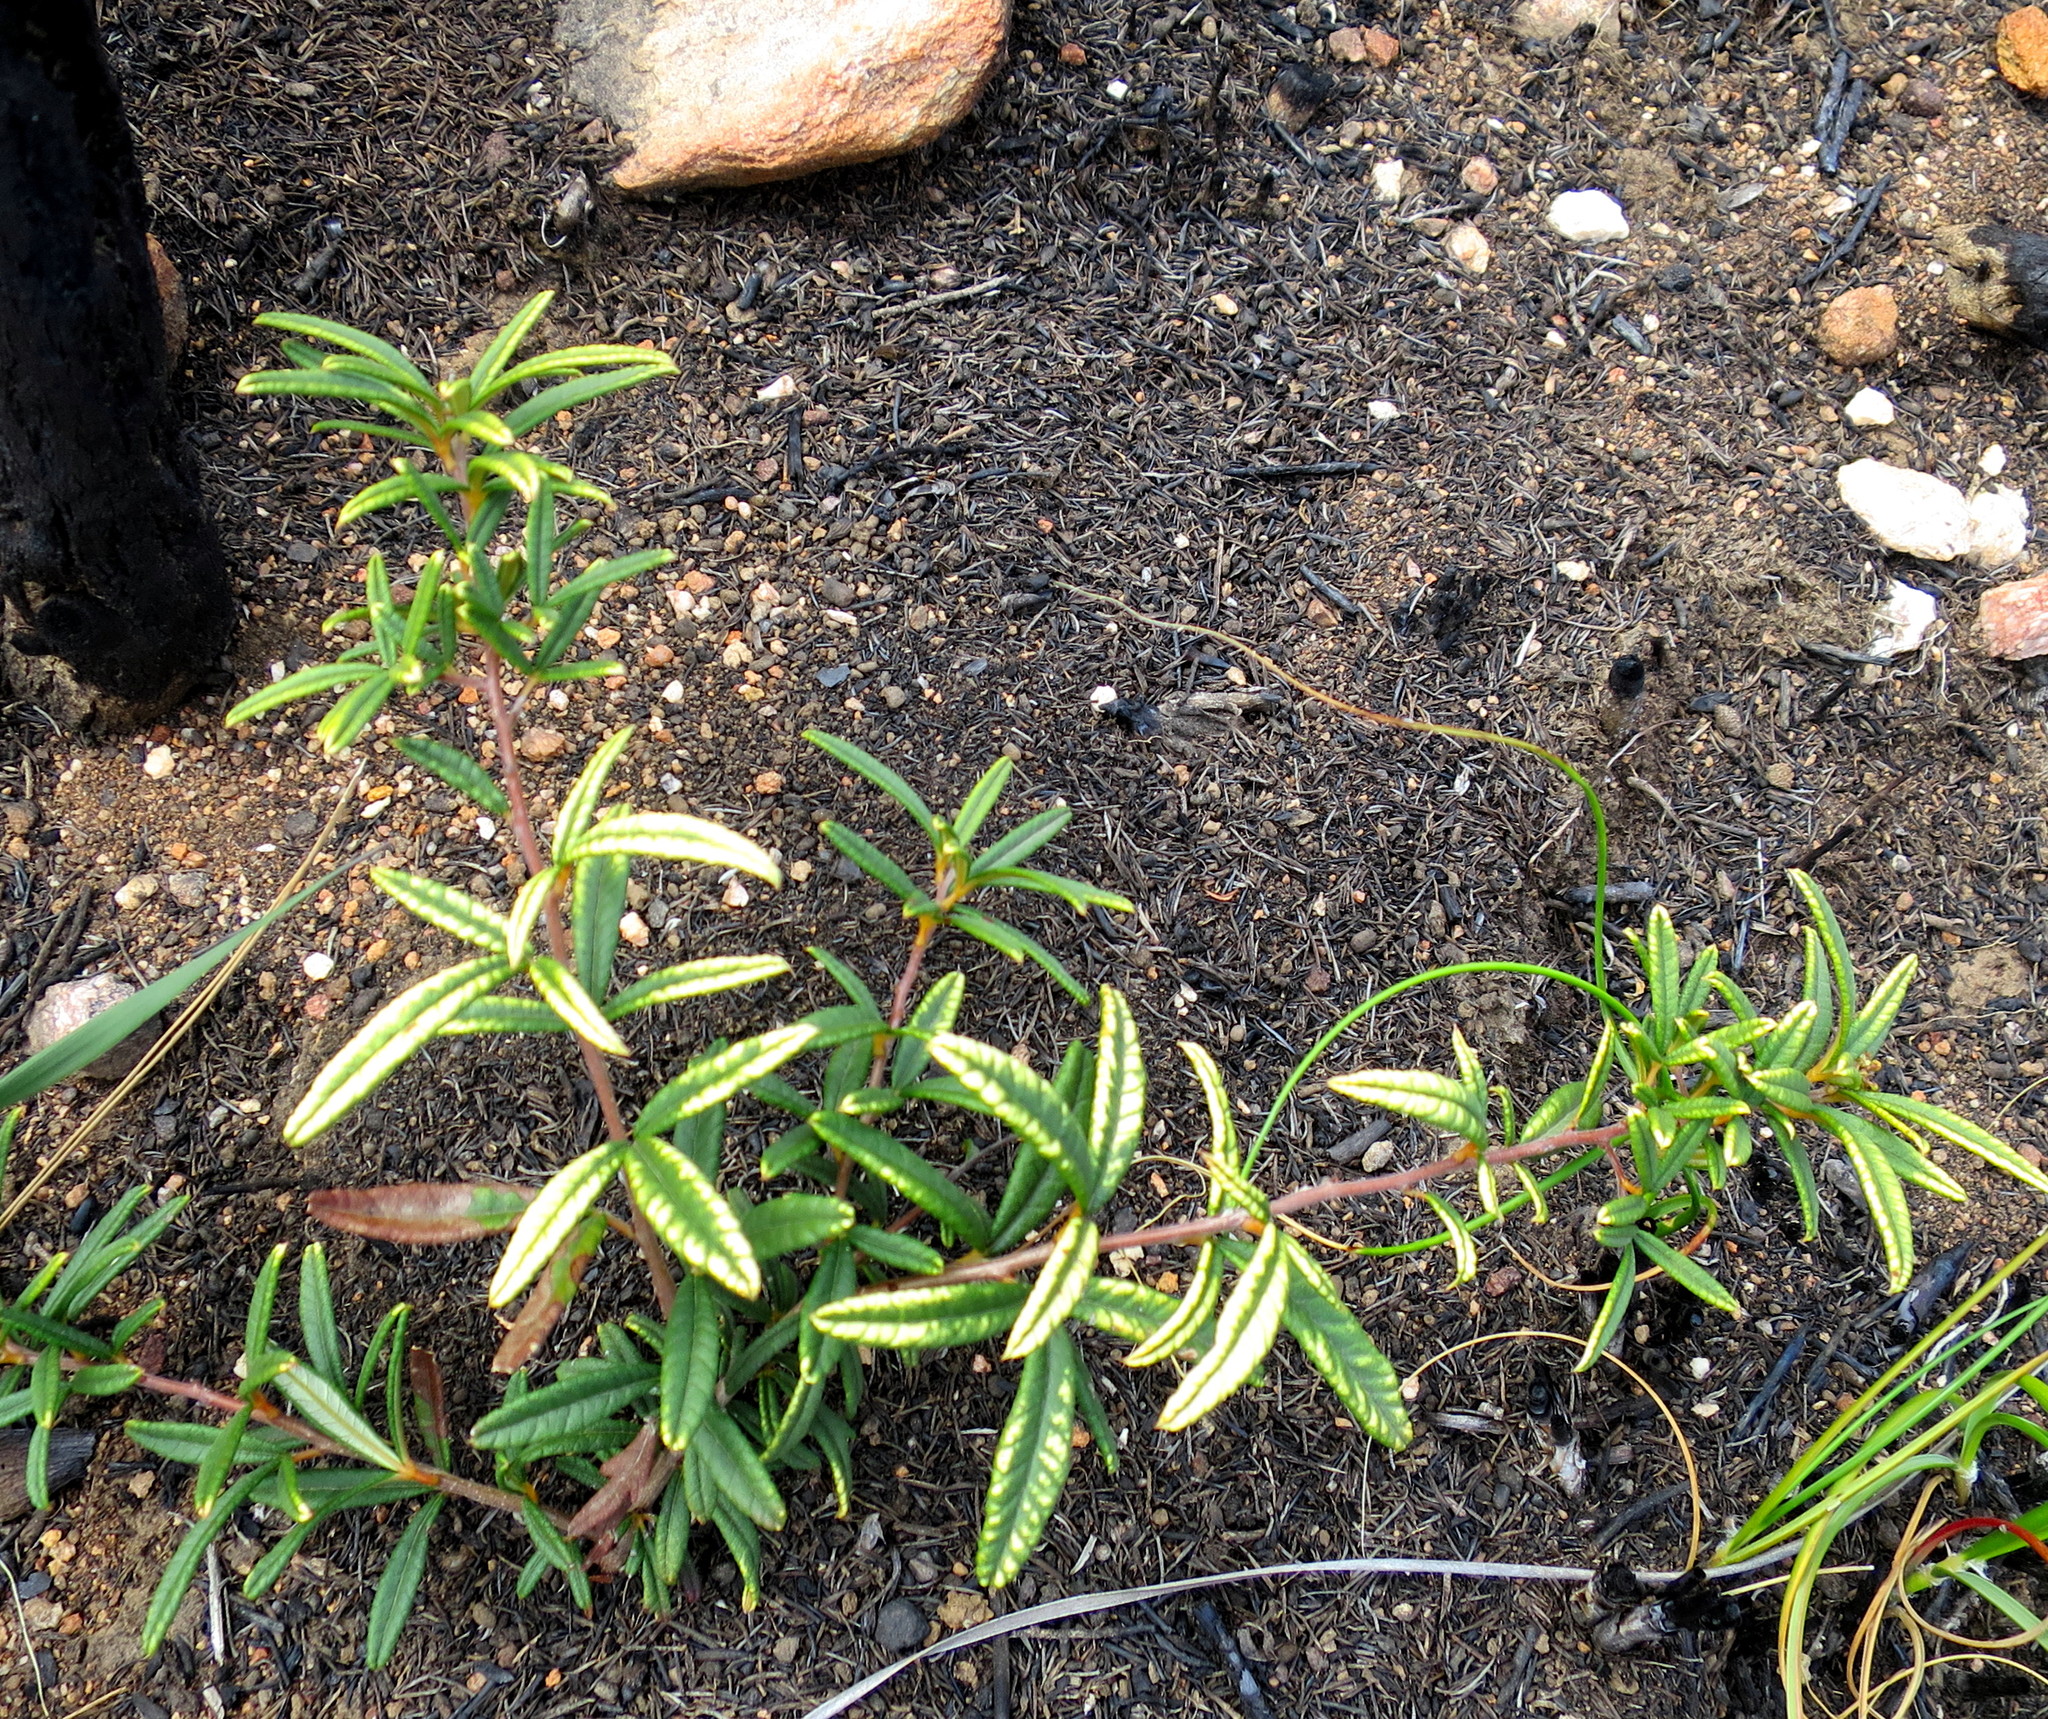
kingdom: Plantae
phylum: Tracheophyta
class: Magnoliopsida
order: Sapindales
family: Anacardiaceae
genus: Searsia
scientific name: Searsia rosmarinifolia
